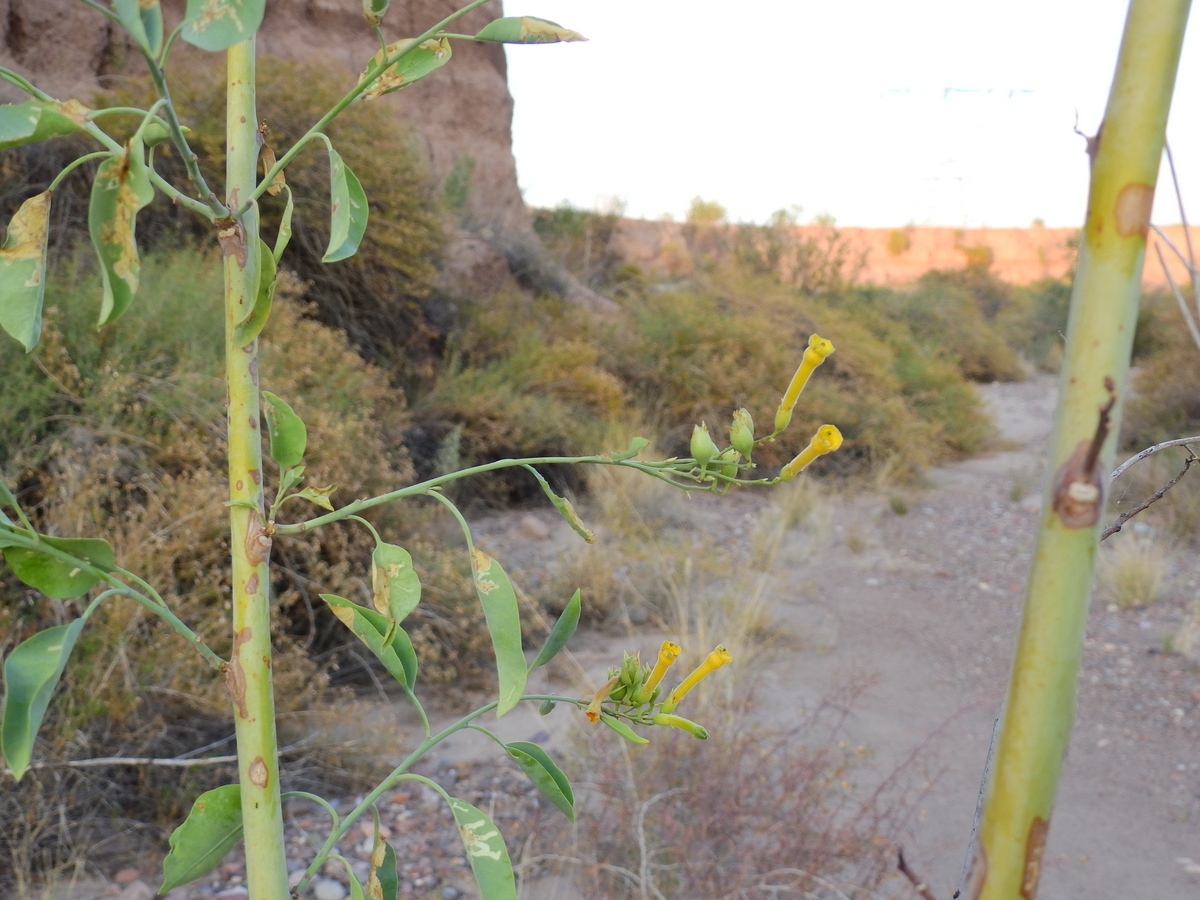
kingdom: Plantae
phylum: Tracheophyta
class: Magnoliopsida
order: Solanales
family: Solanaceae
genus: Nicotiana
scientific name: Nicotiana glauca
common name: Tree tobacco
